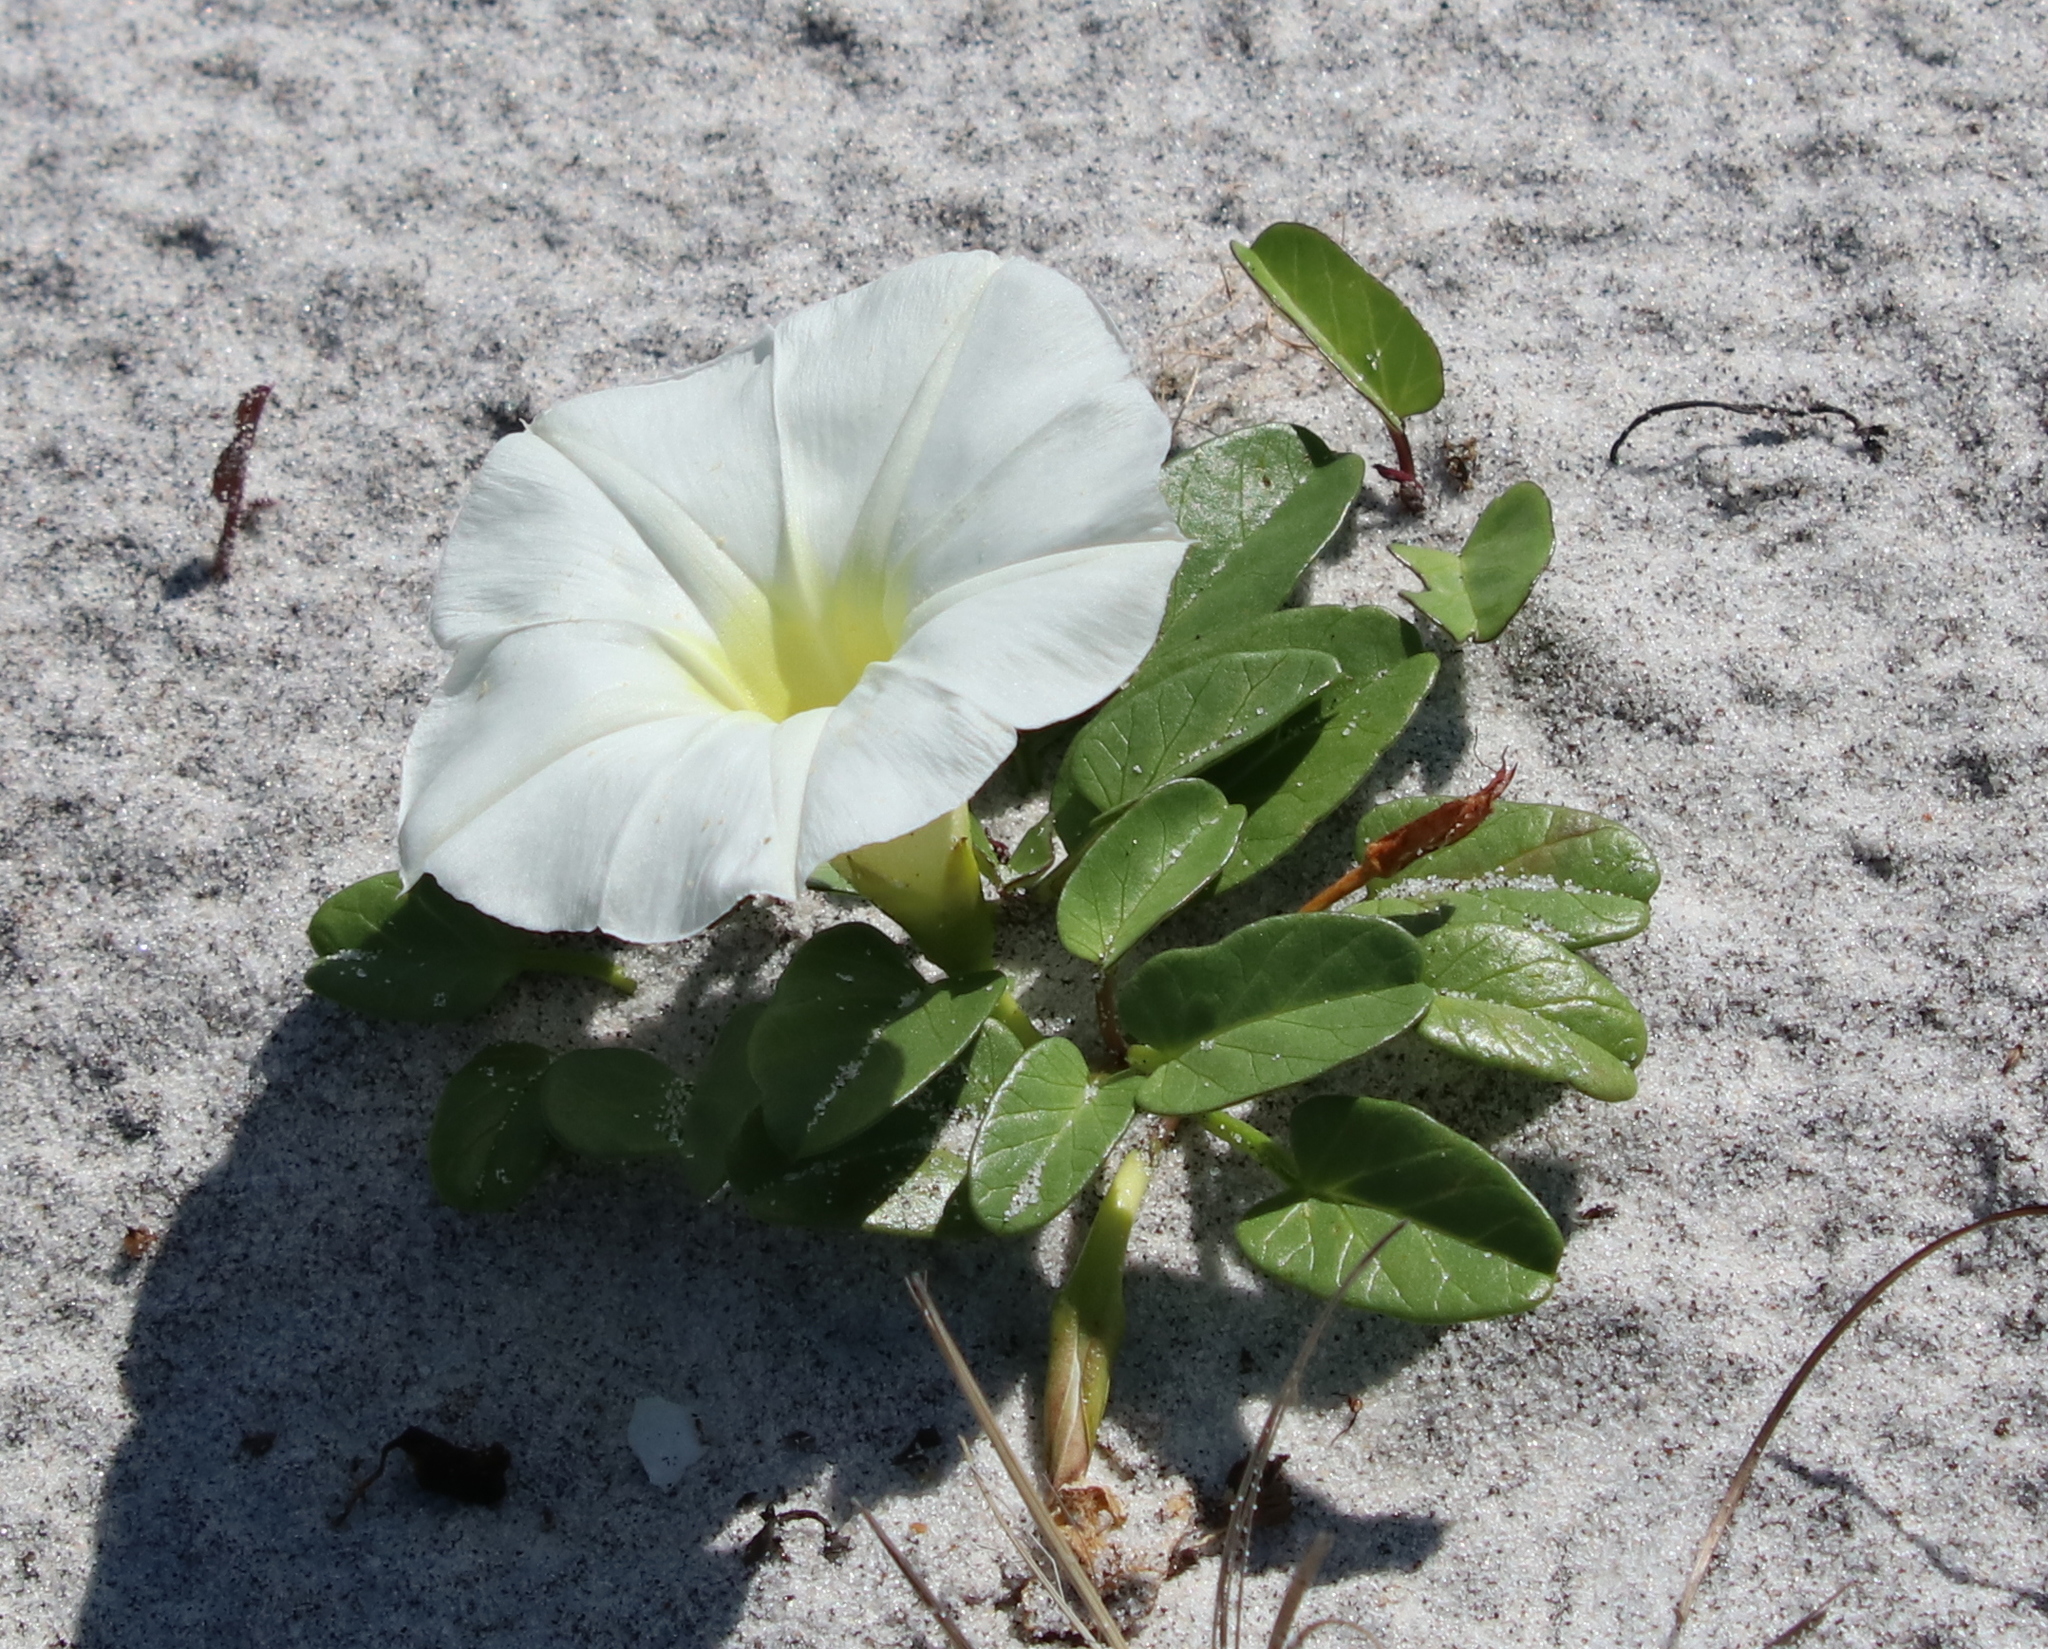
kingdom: Plantae
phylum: Tracheophyta
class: Magnoliopsida
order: Solanales
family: Convolvulaceae
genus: Ipomoea
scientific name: Ipomoea imperati
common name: Fiddle-leaf morning-glory
